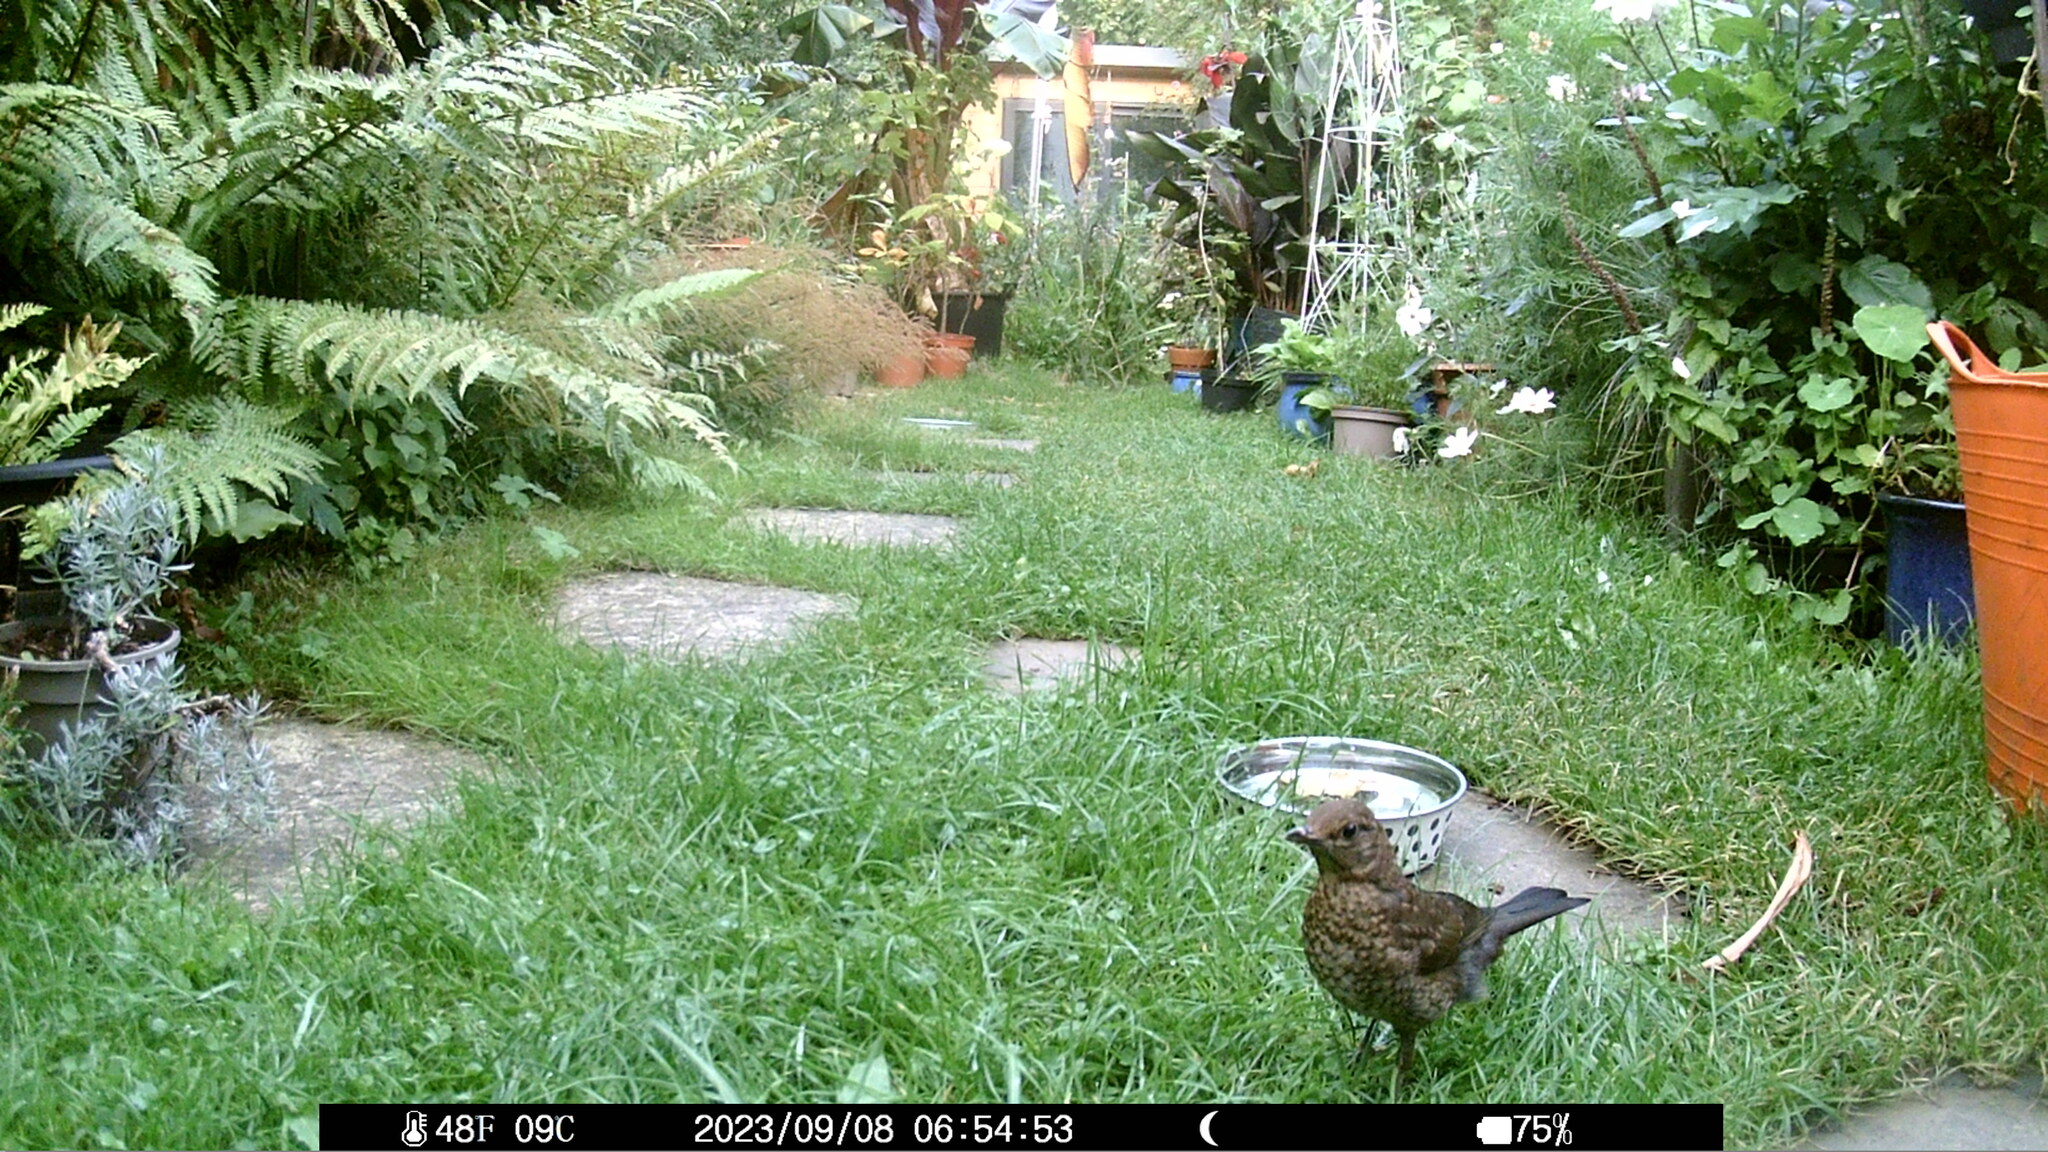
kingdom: Animalia
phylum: Chordata
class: Aves
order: Passeriformes
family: Turdidae
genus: Turdus
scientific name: Turdus merula
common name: Common blackbird
